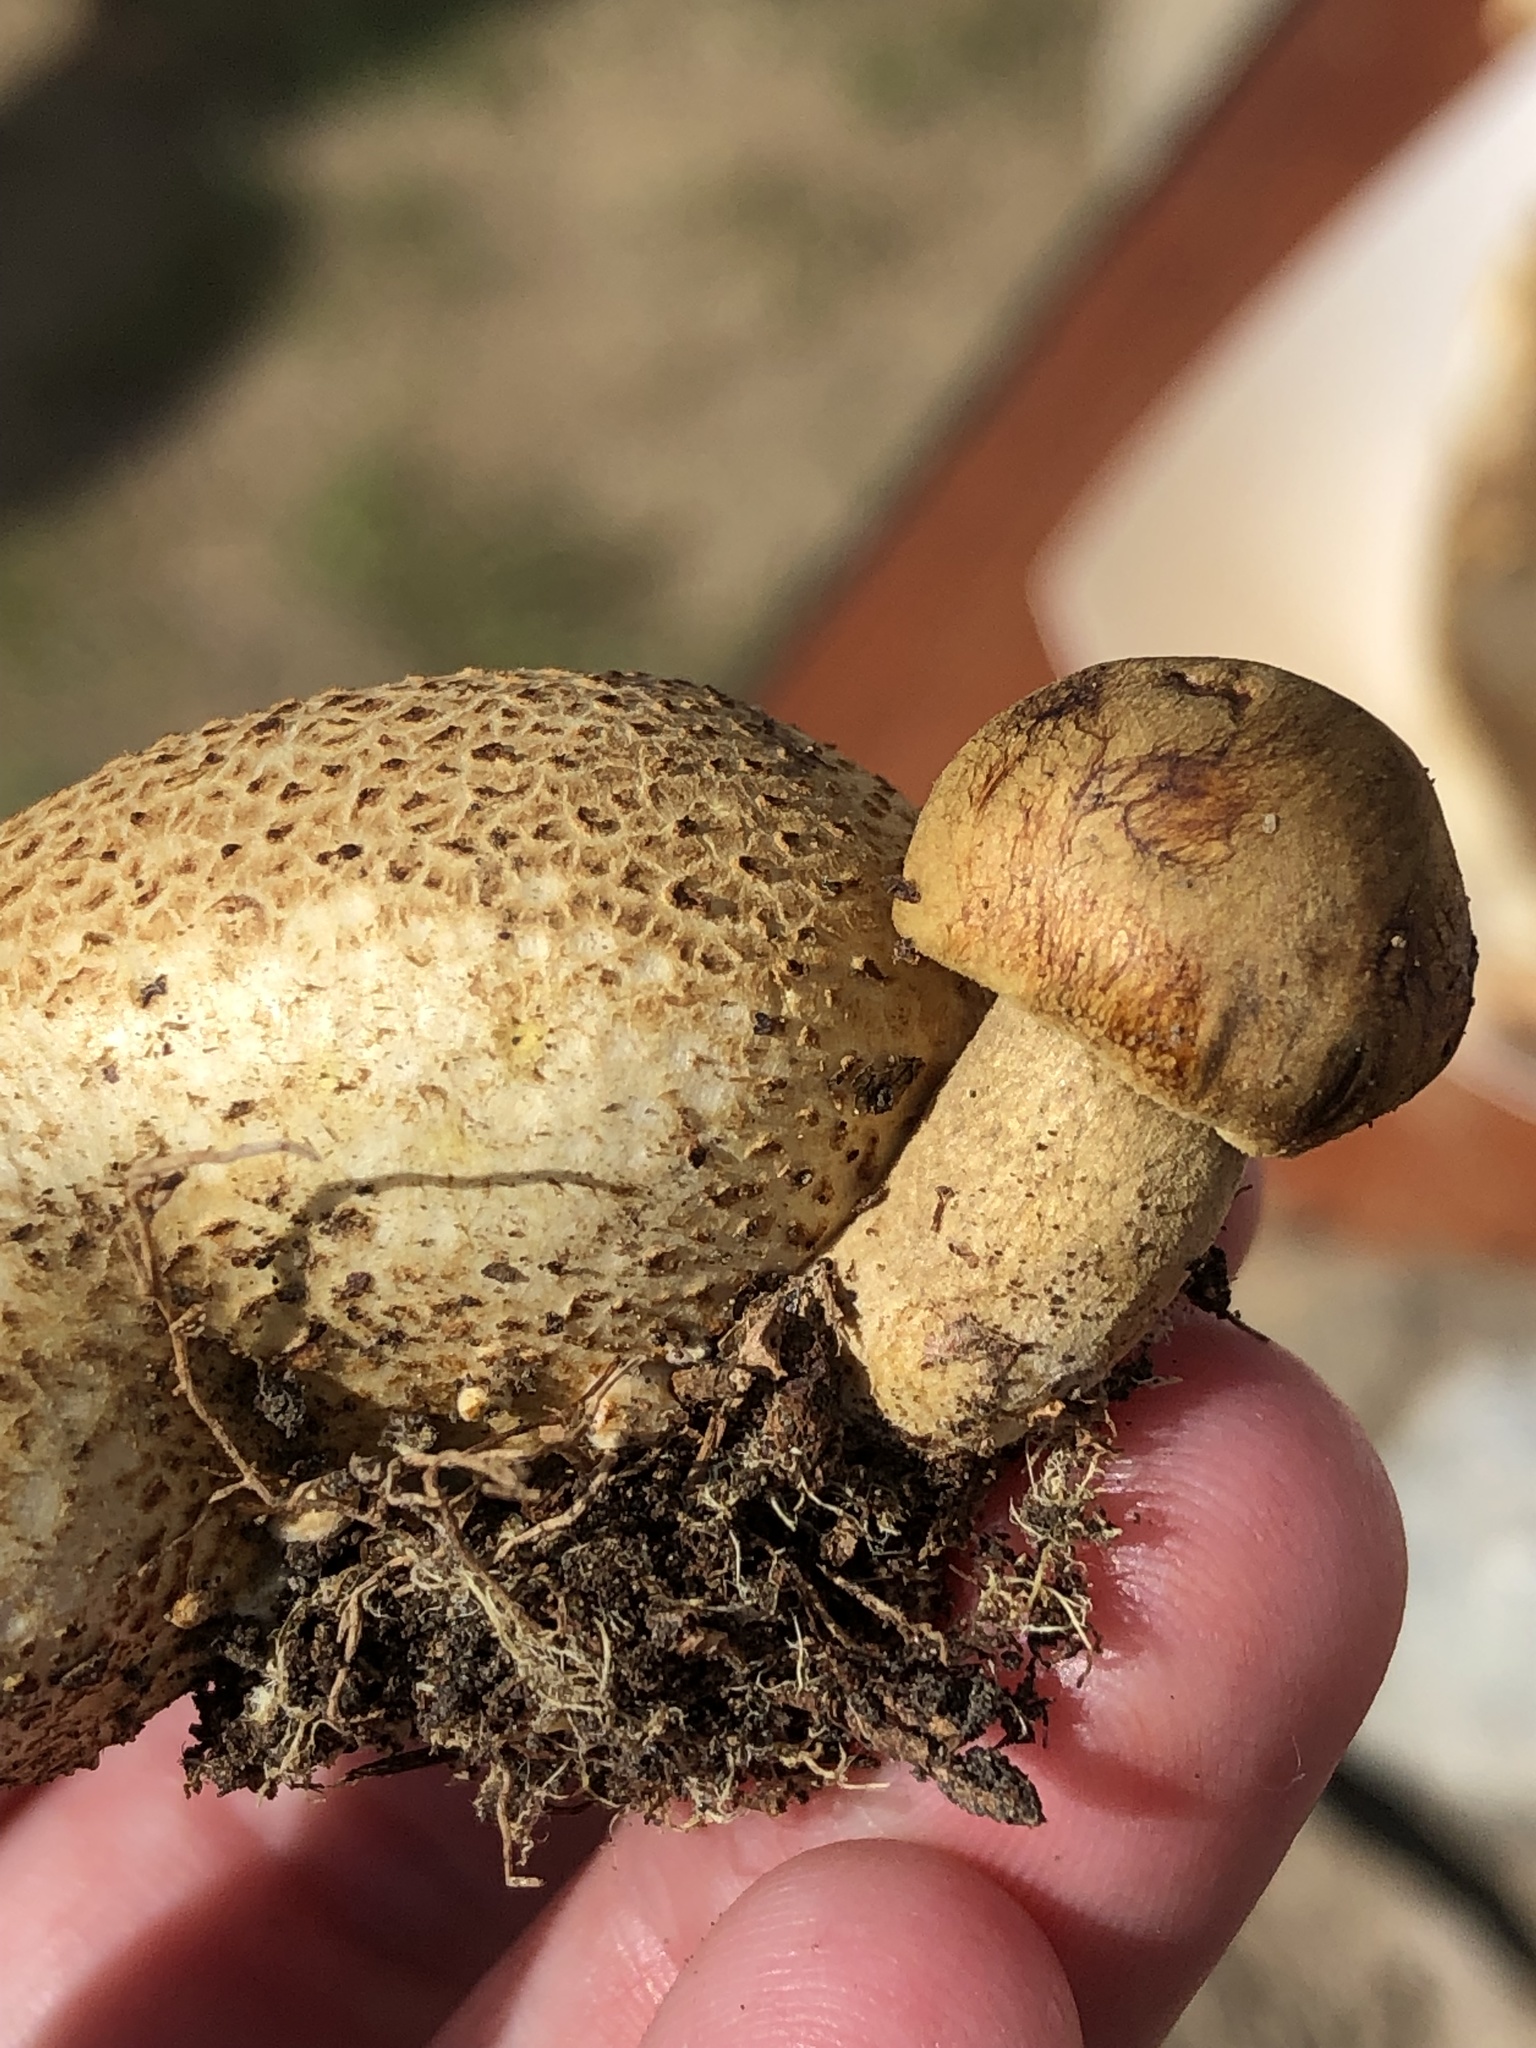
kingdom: Fungi
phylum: Basidiomycota
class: Agaricomycetes
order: Boletales
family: Boletaceae
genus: Pseudoboletus
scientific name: Pseudoboletus parasiticus
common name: Parasitic bolete
